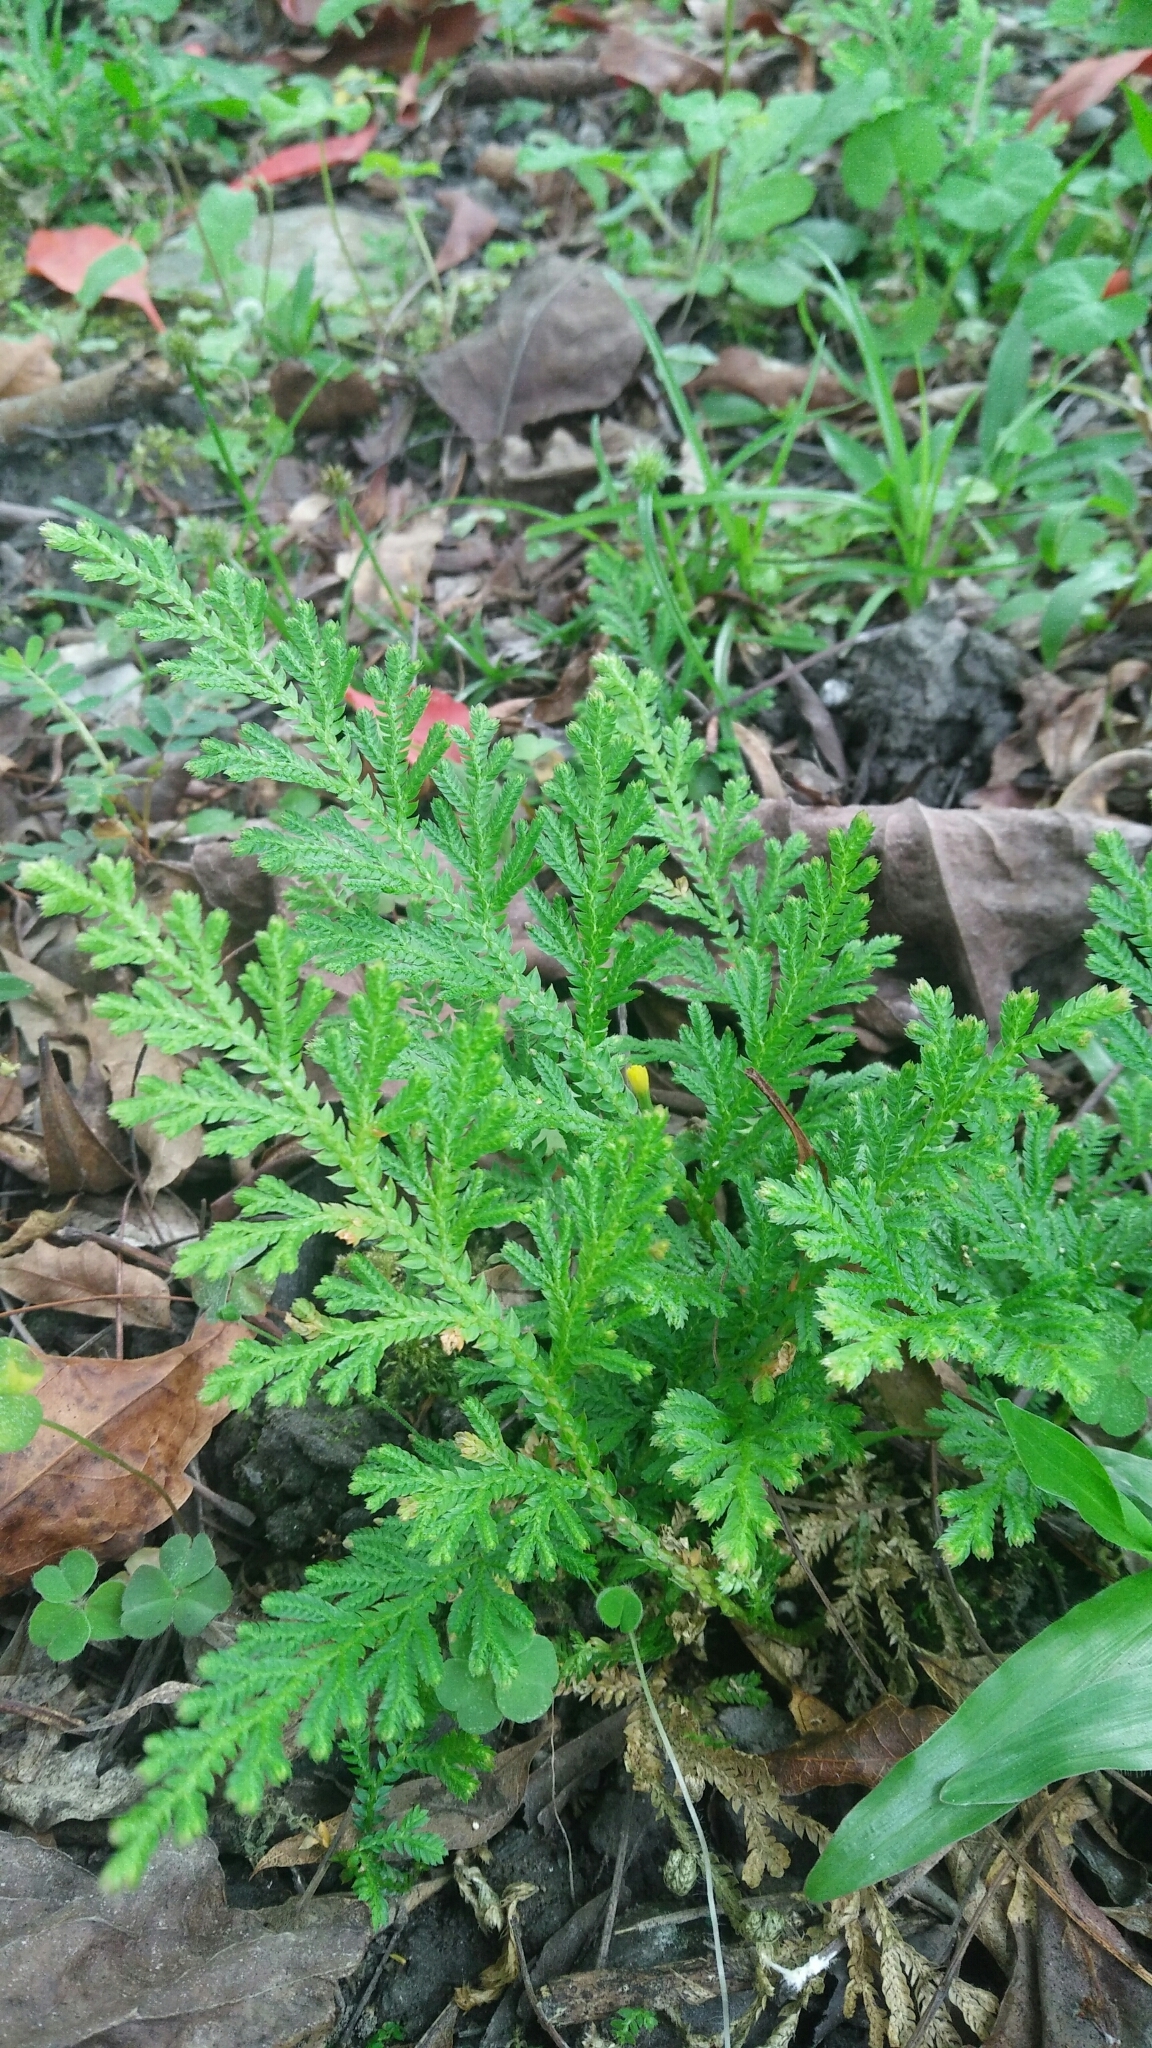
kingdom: Plantae
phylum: Tracheophyta
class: Lycopodiopsida
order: Selaginellales
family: Selaginellaceae
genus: Selaginella
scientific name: Selaginella moellendorffii
